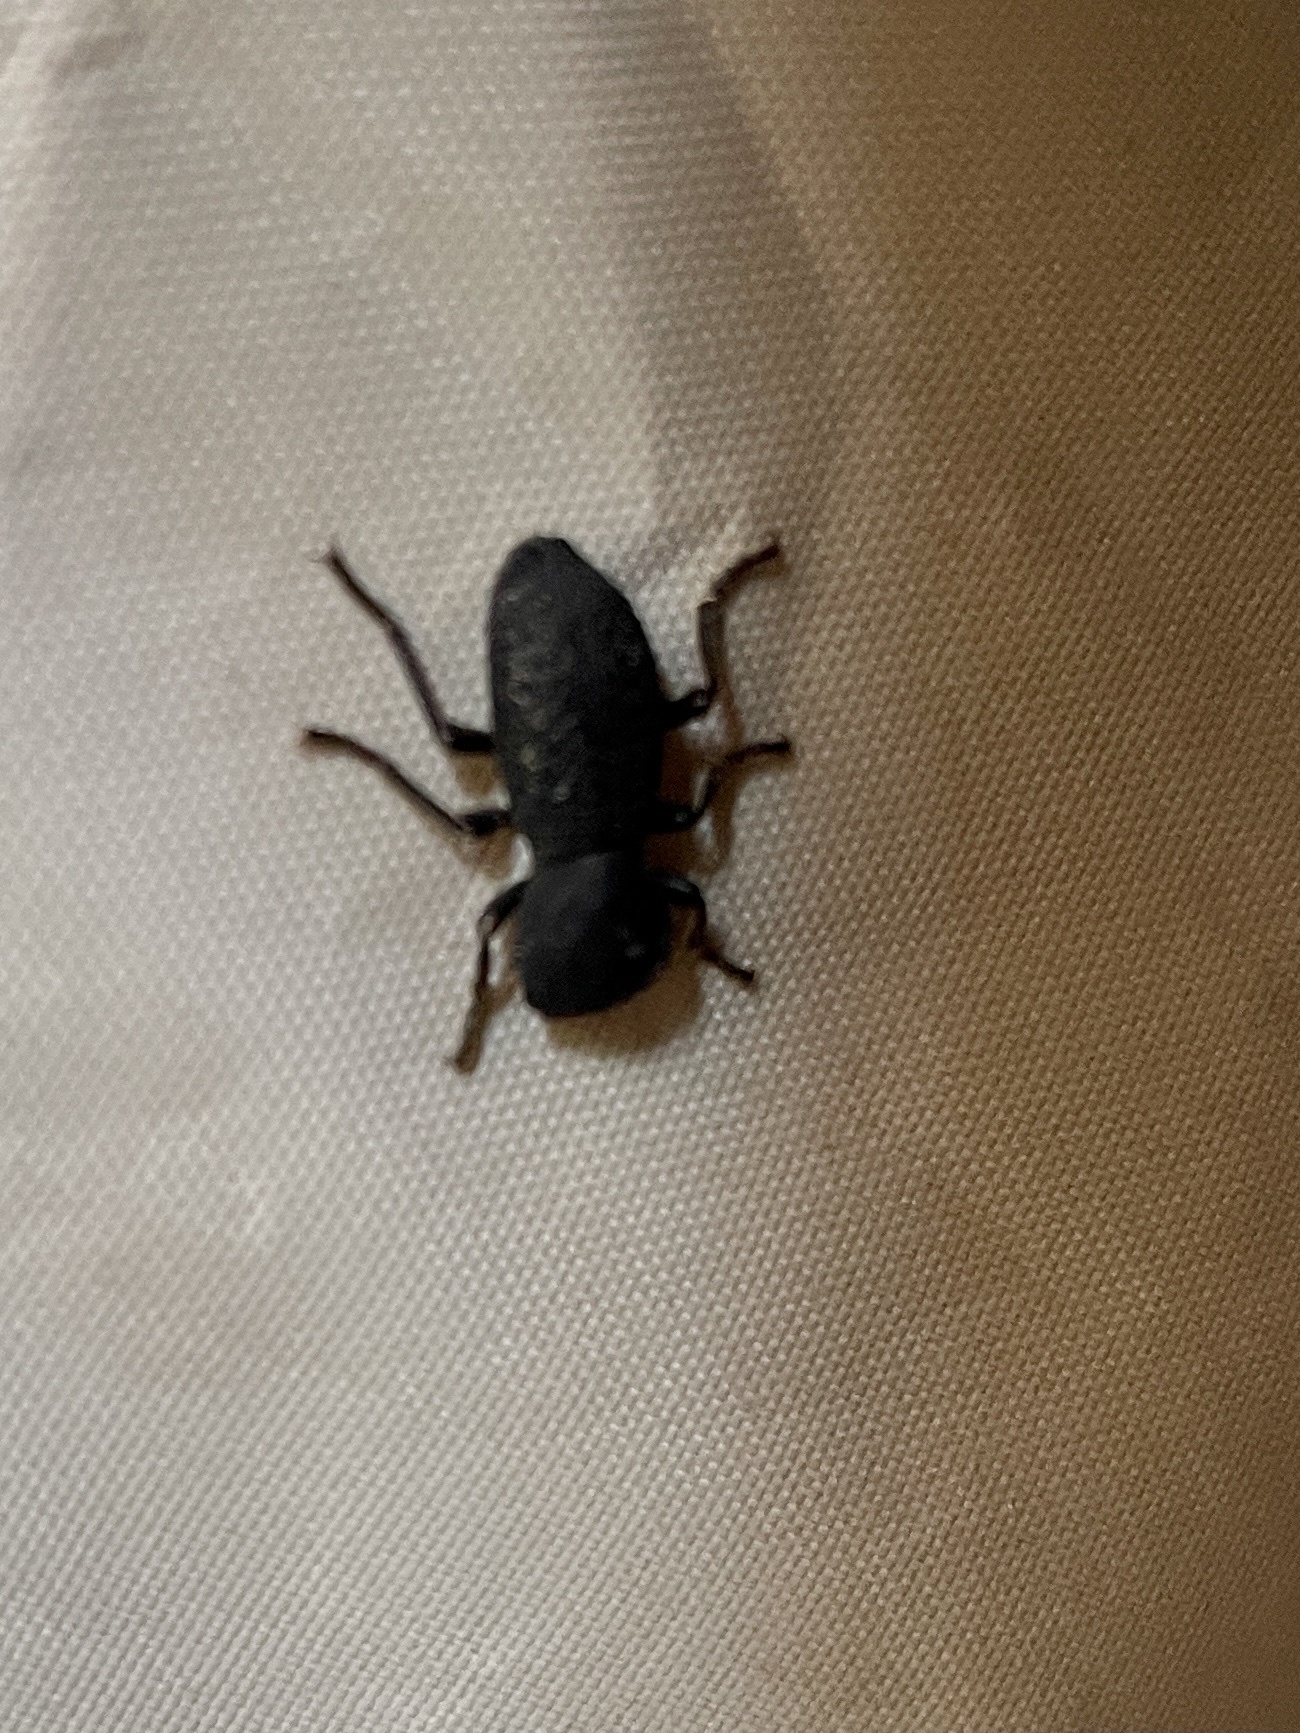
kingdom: Animalia
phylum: Arthropoda
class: Insecta
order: Coleoptera
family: Zopheridae
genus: Zopherus
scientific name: Zopherus concolor
